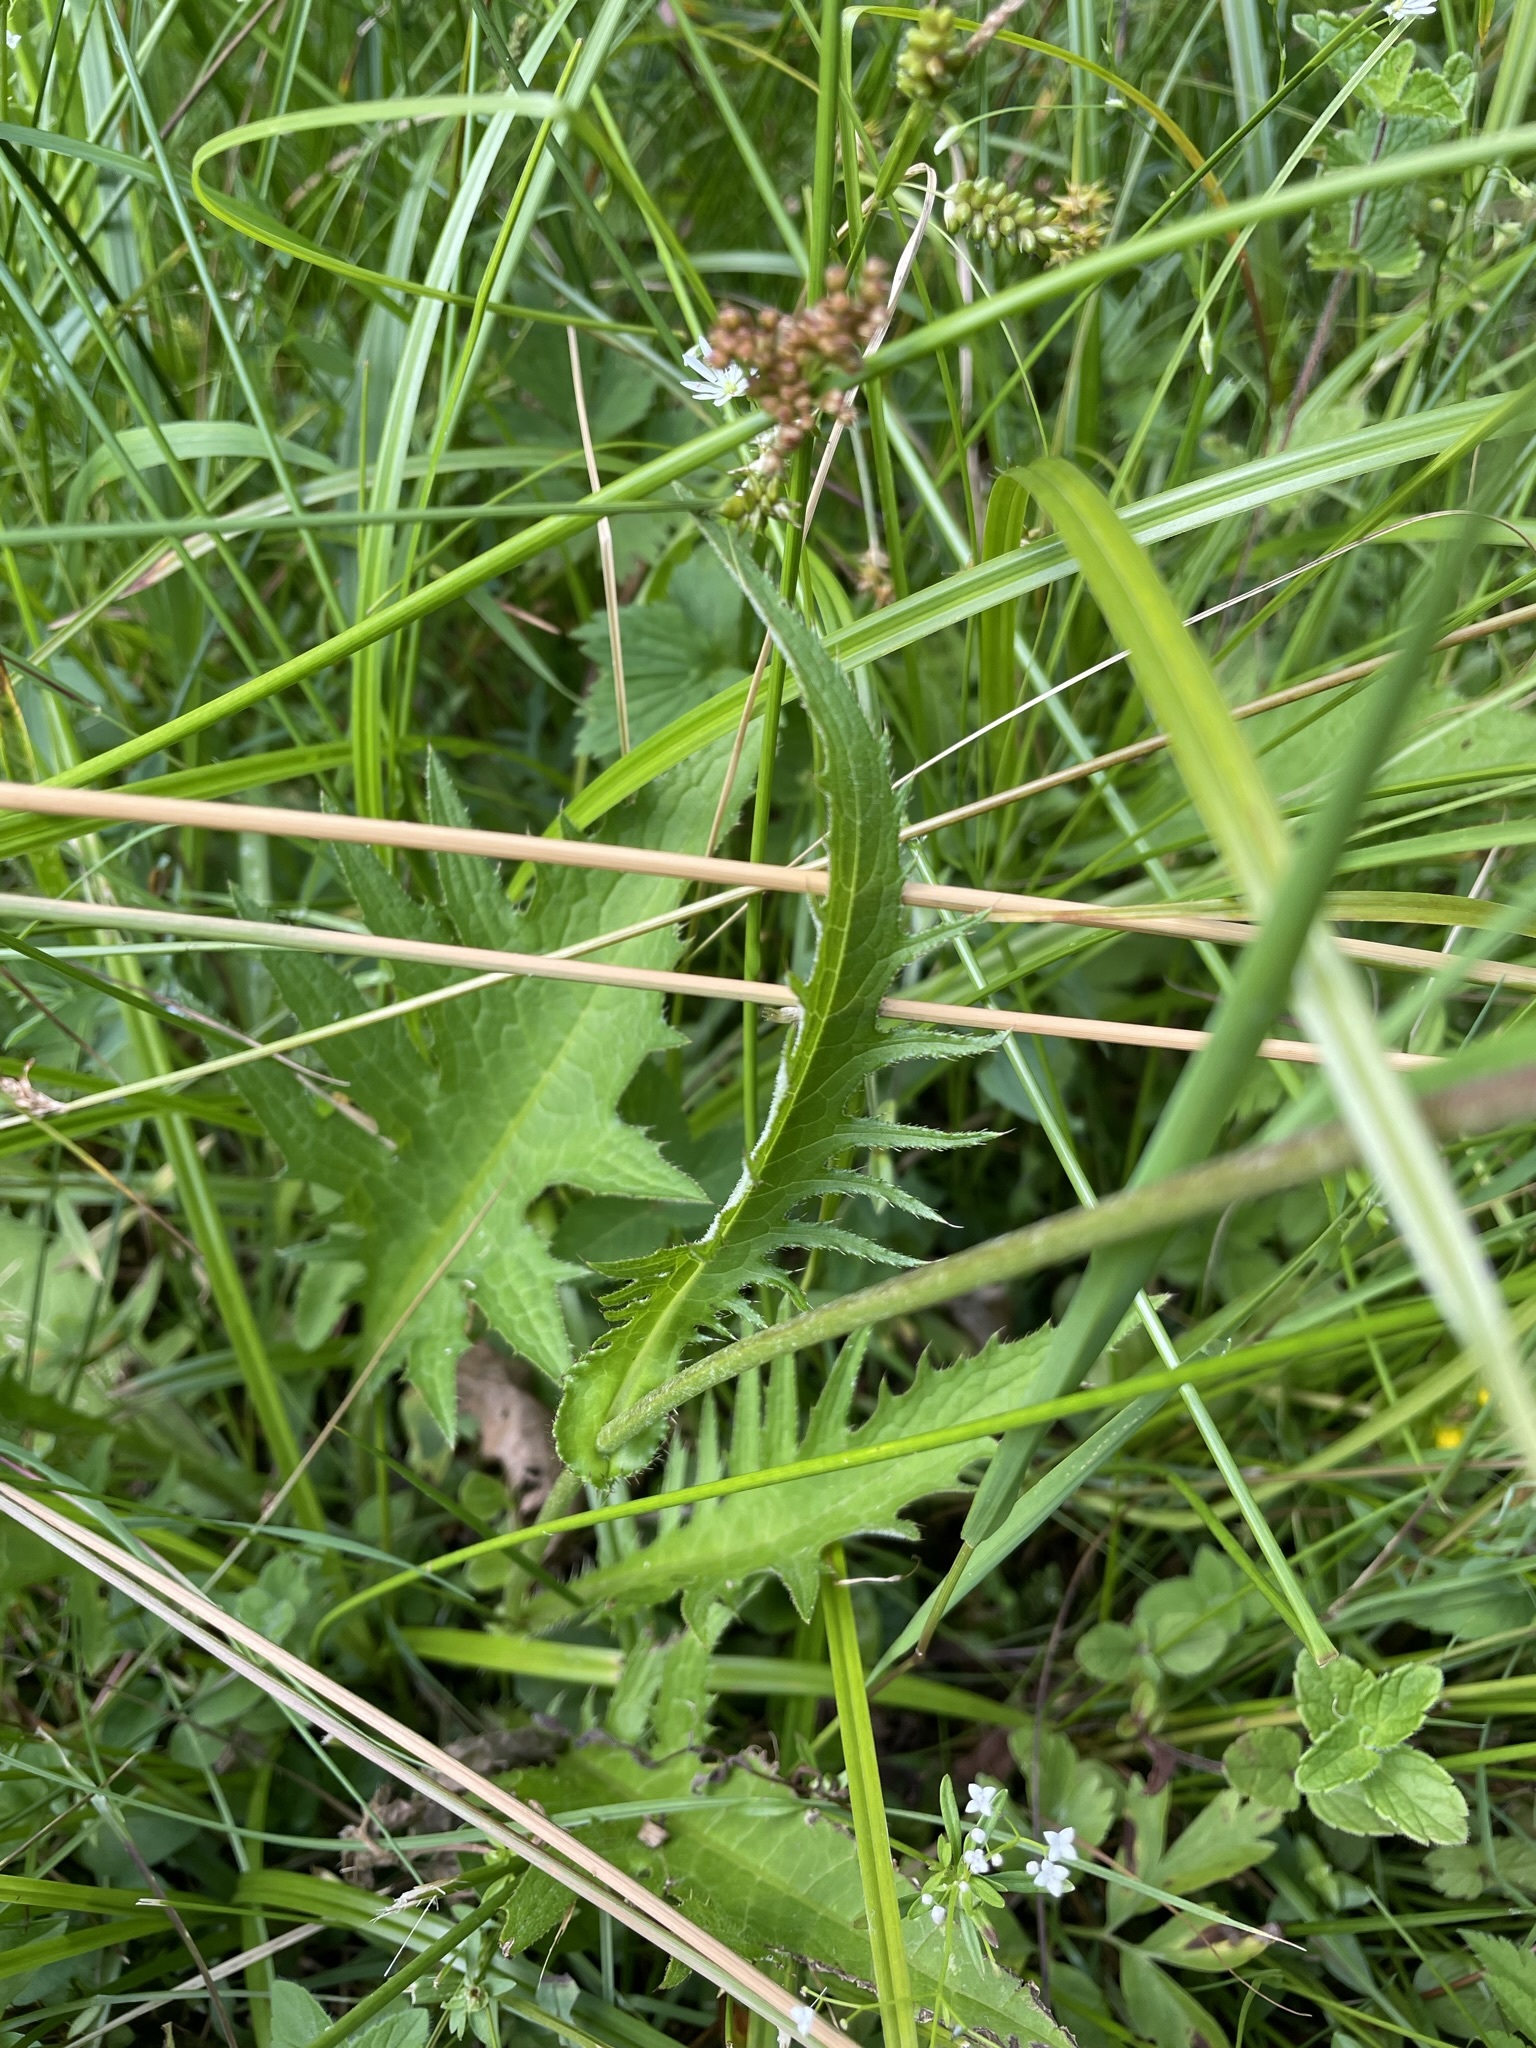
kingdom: Plantae
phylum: Tracheophyta
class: Magnoliopsida
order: Asterales
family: Asteraceae
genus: Cirsium
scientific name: Cirsium rivulare
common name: Brook thistle
